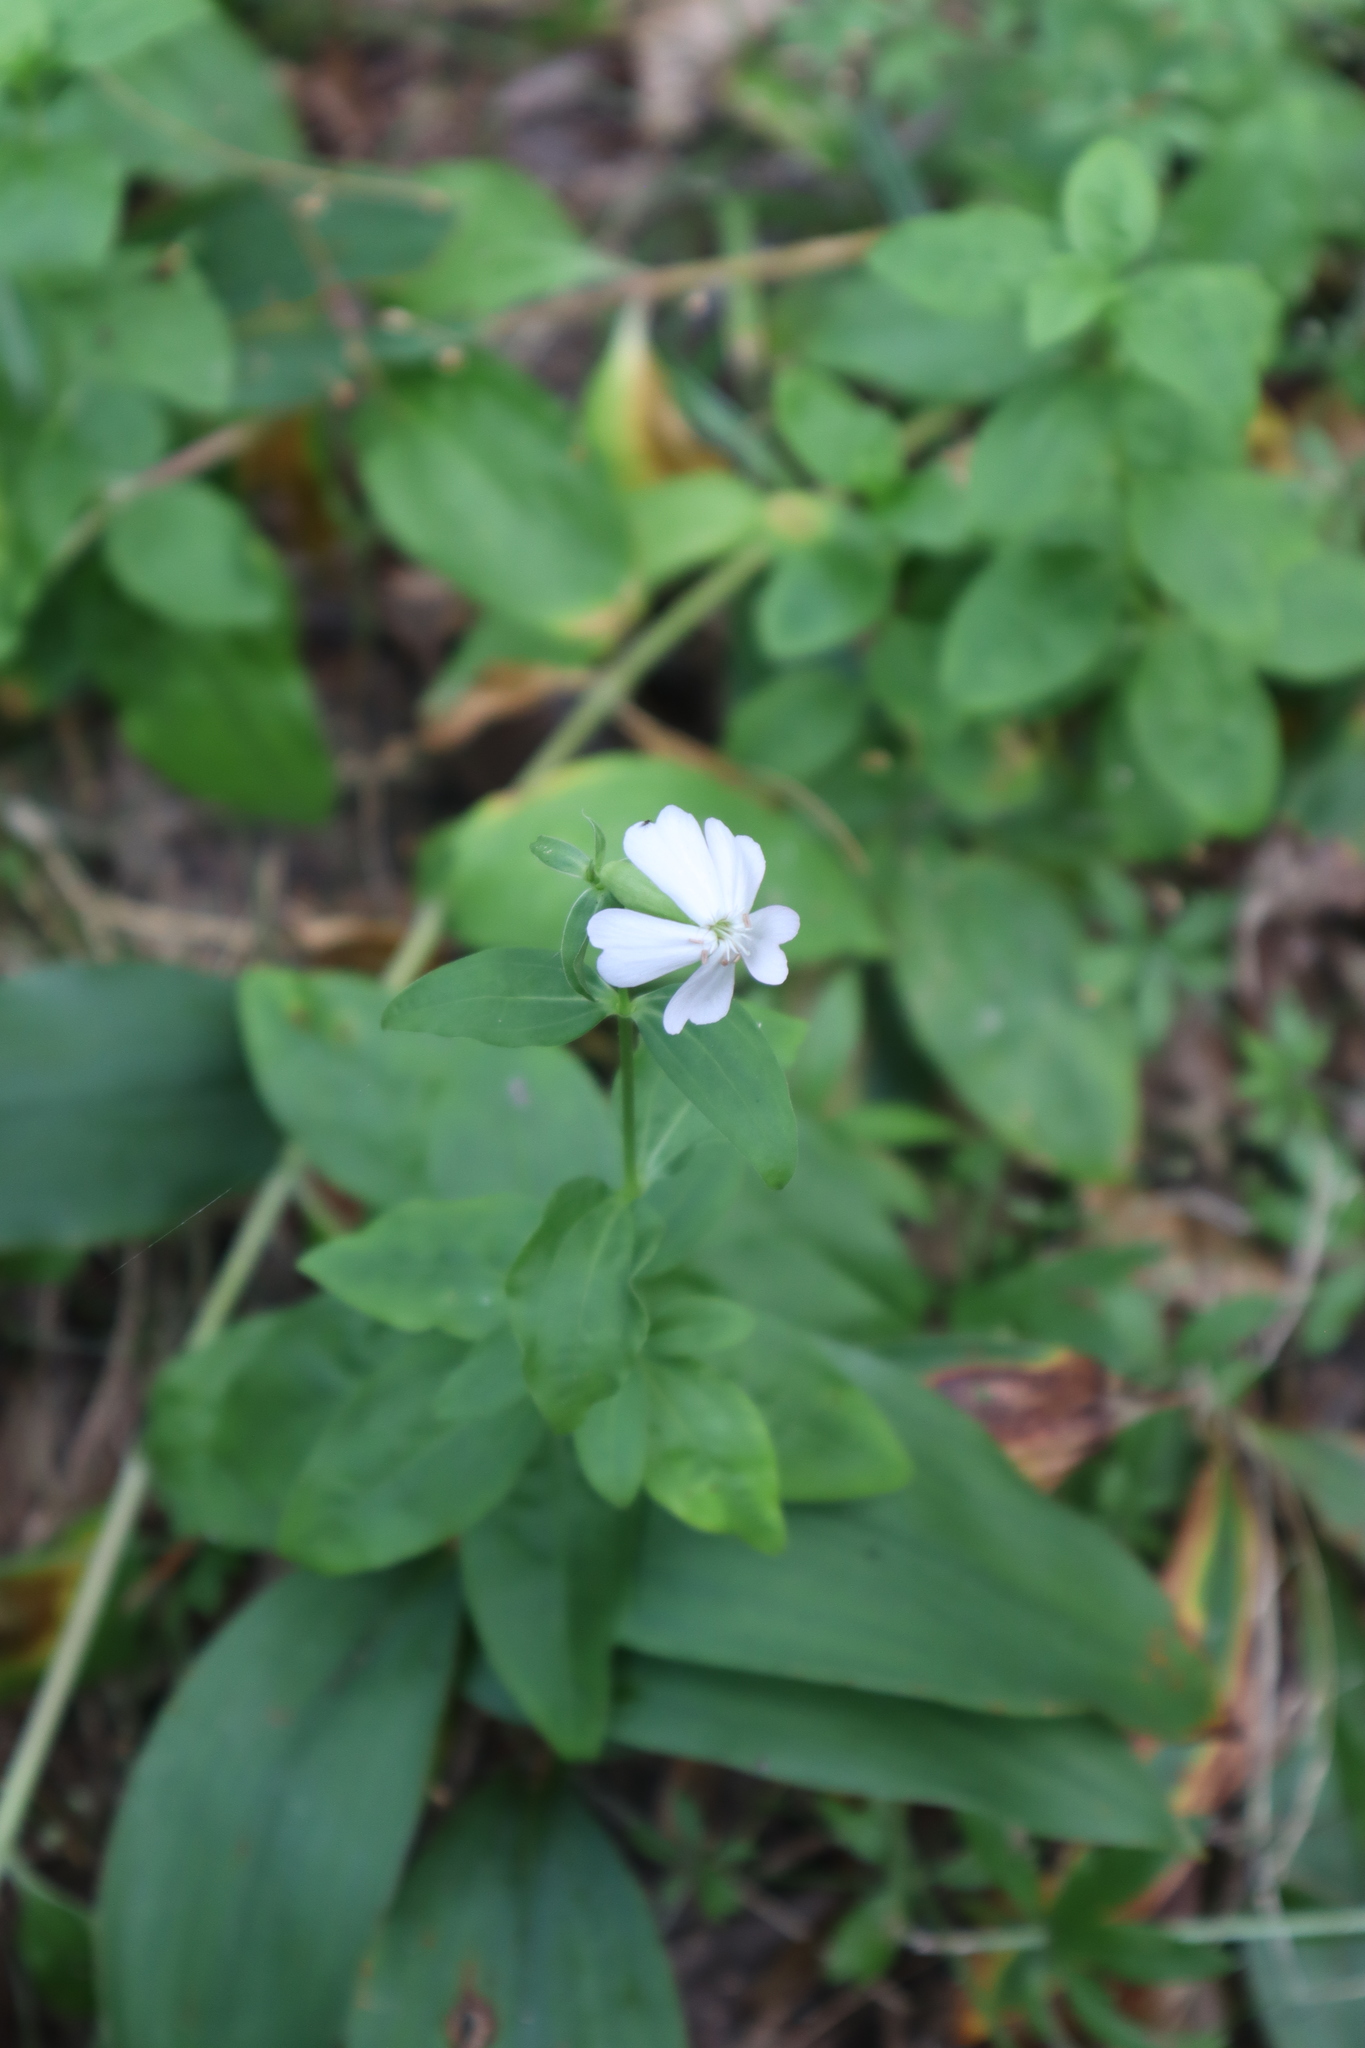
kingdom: Plantae
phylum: Tracheophyta
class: Magnoliopsida
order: Caryophyllales
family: Caryophyllaceae
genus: Saponaria
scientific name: Saponaria officinalis
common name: Soapwort
